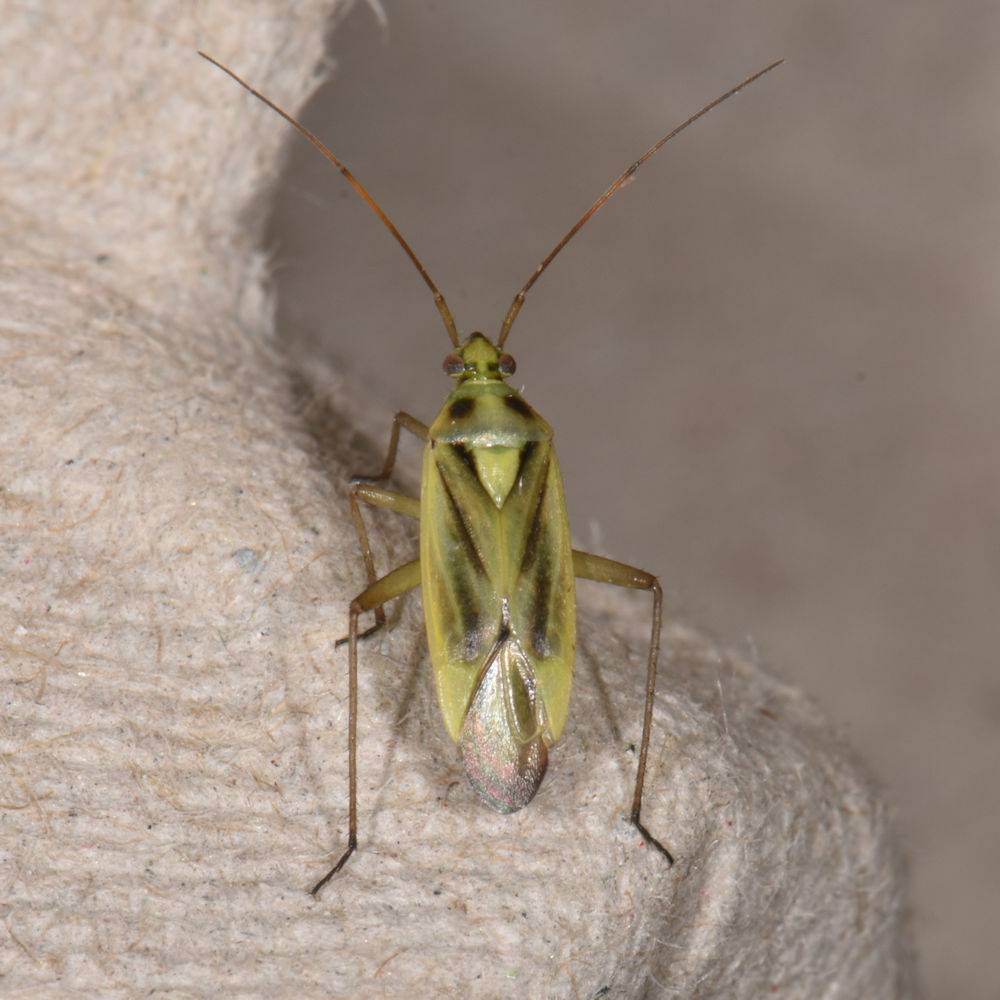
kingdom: Animalia
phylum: Arthropoda
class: Insecta
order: Hemiptera
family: Miridae
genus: Stenotus
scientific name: Stenotus binotatus
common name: Plant bug
